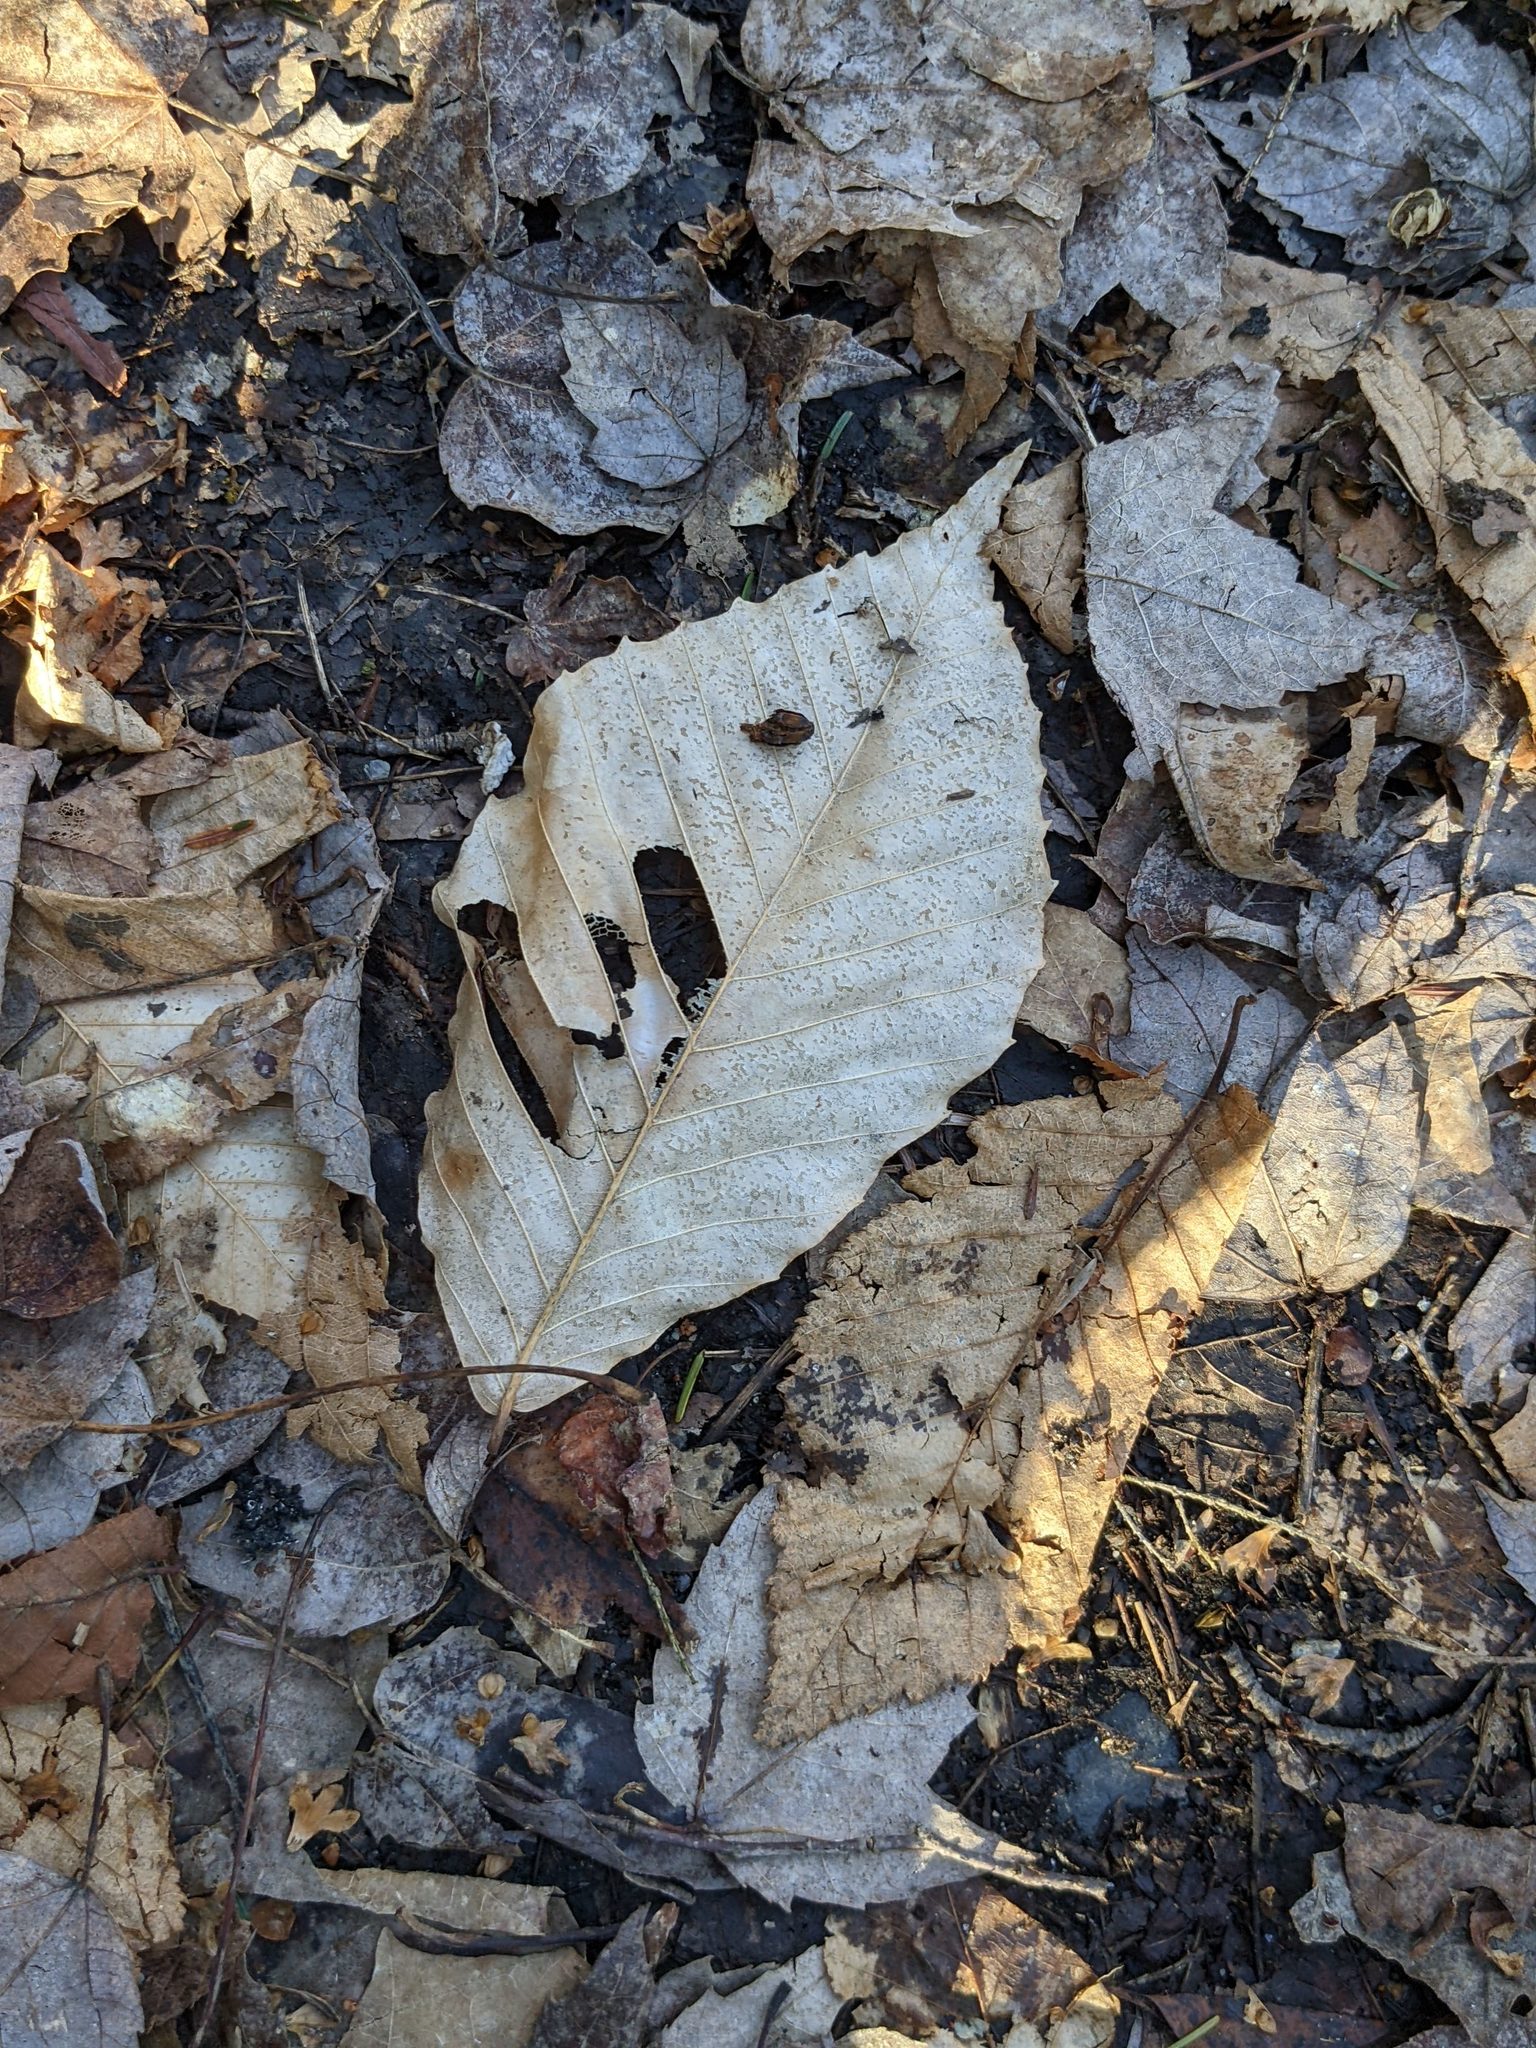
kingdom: Plantae
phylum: Tracheophyta
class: Magnoliopsida
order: Fagales
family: Fagaceae
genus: Fagus
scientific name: Fagus grandifolia
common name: American beech
